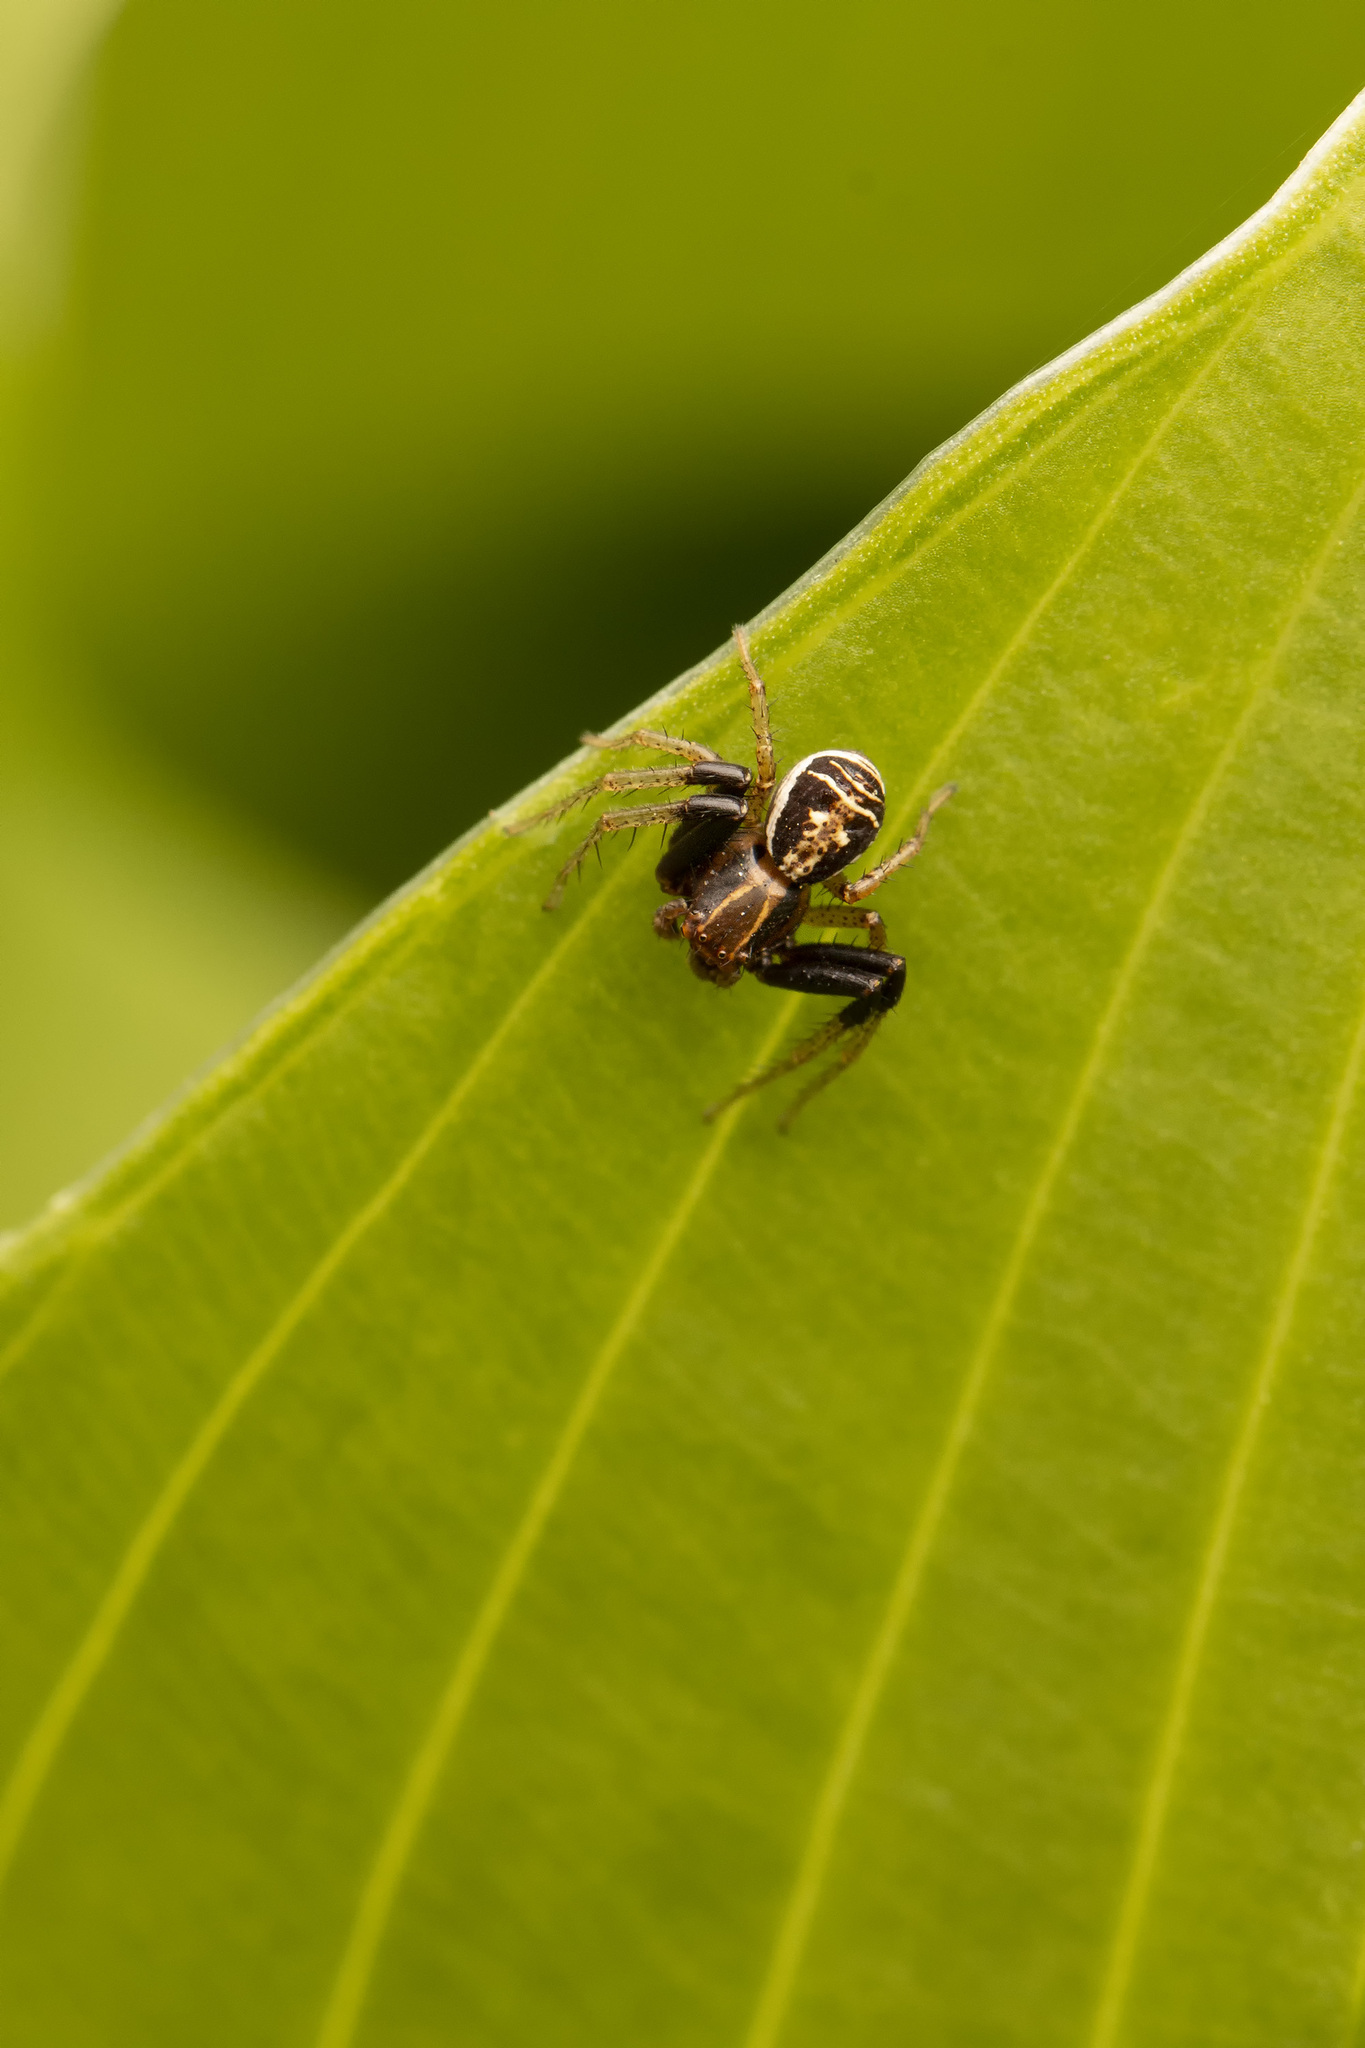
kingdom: Animalia
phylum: Arthropoda
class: Arachnida
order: Araneae
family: Thomisidae
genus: Xysticus
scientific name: Xysticus ulmi
